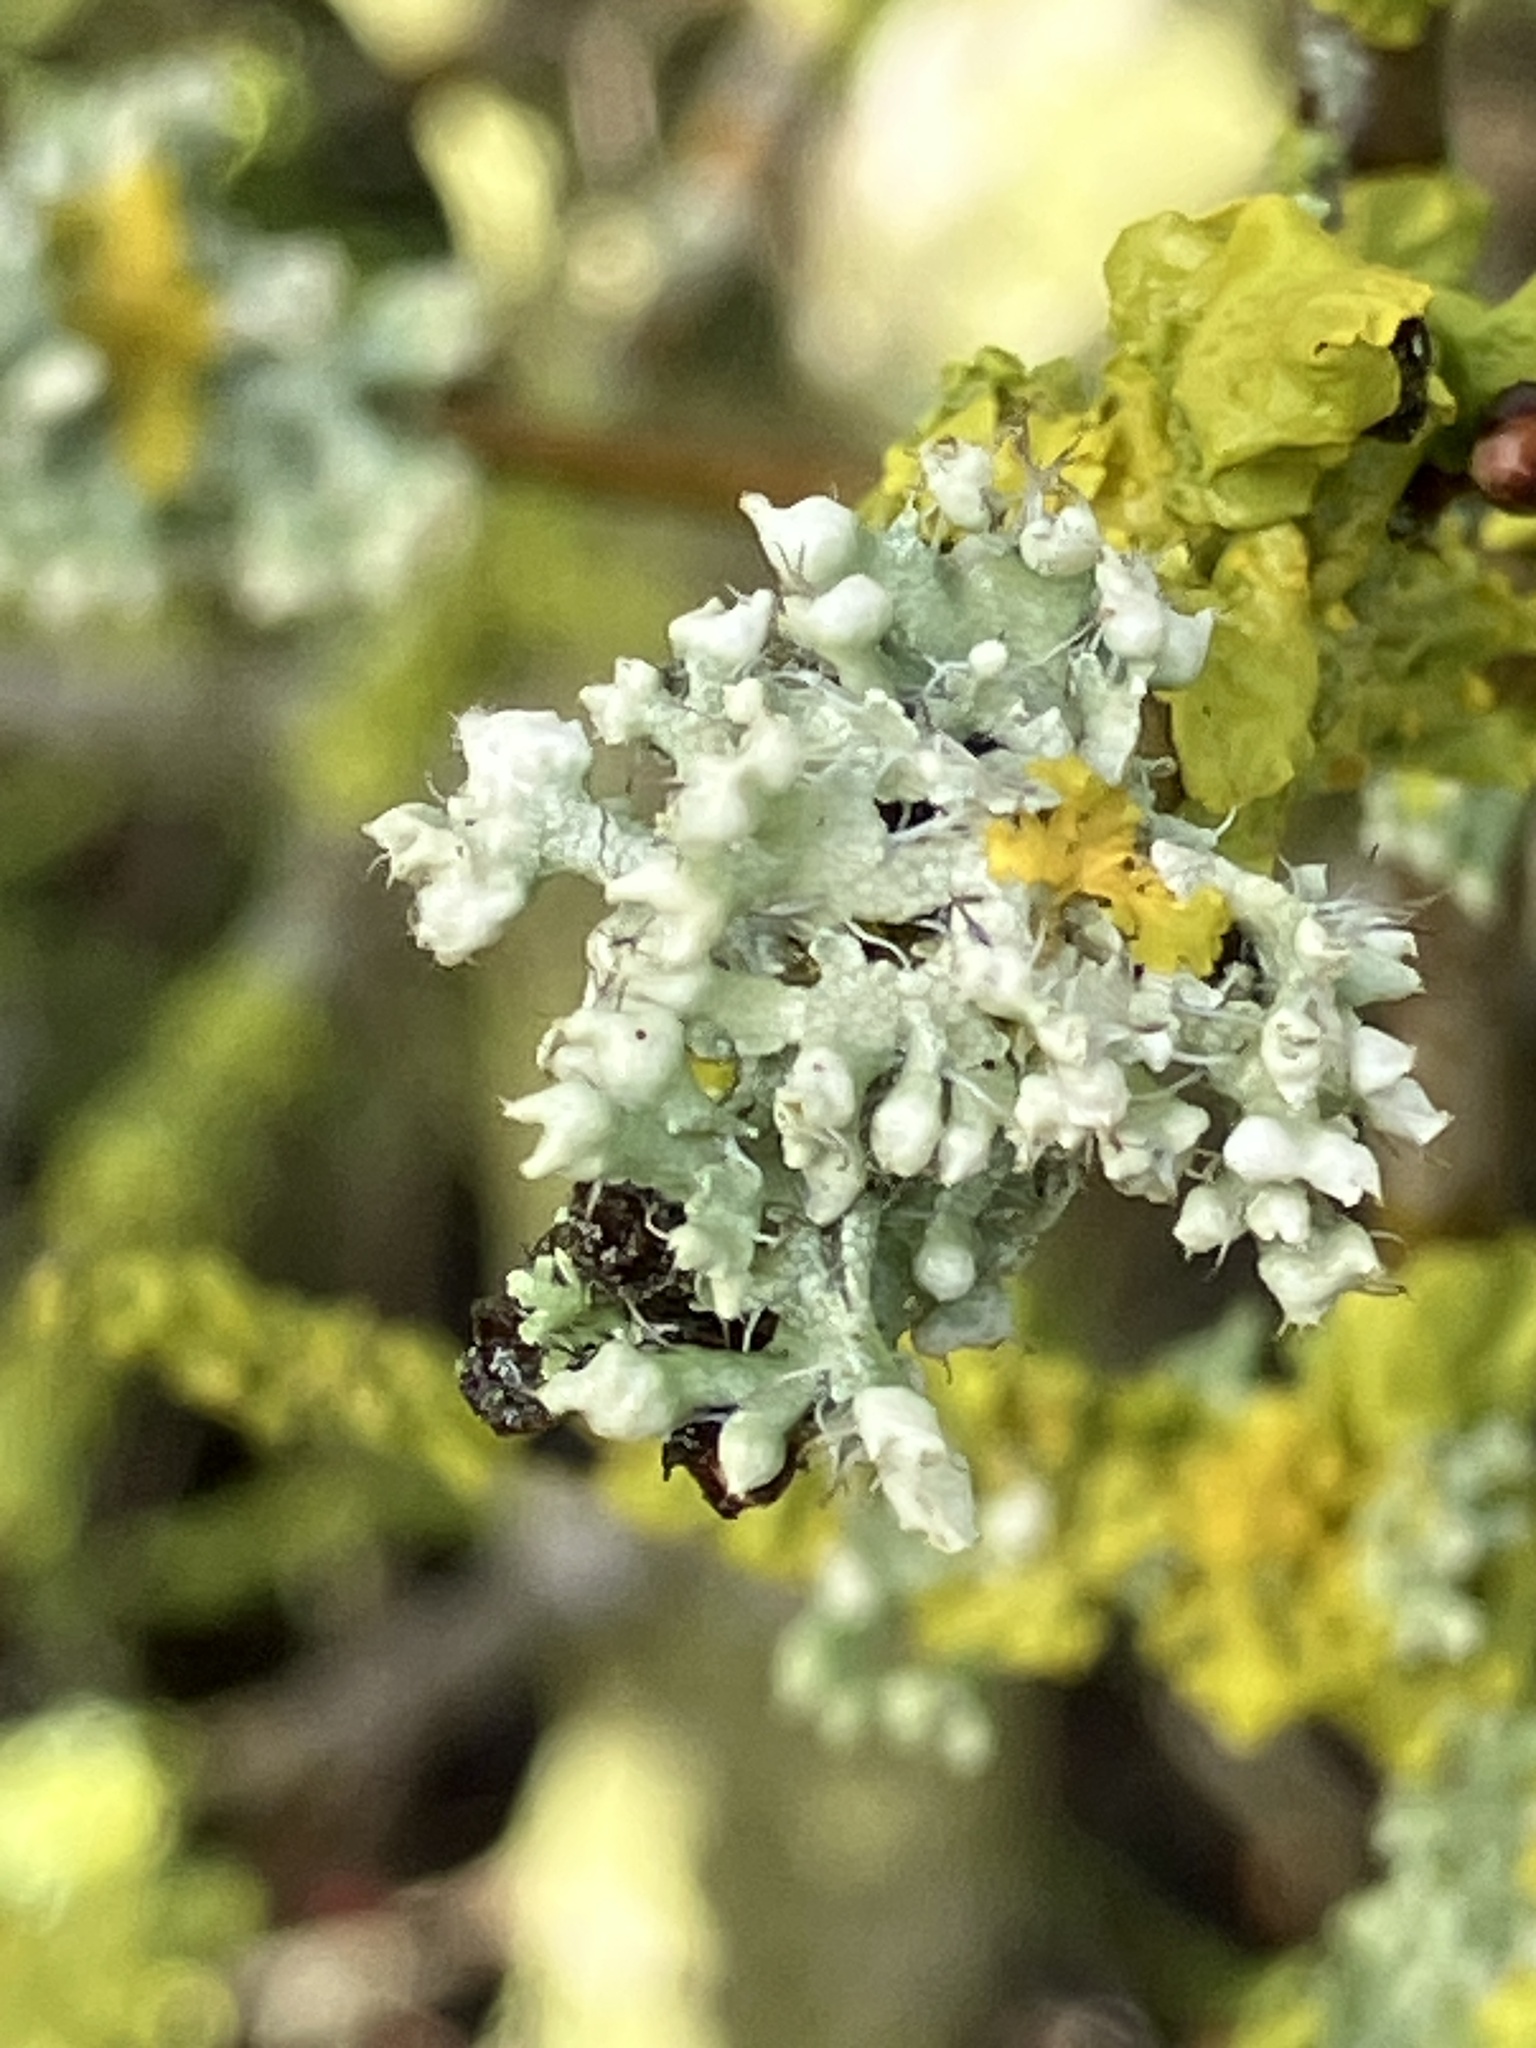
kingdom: Fungi
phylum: Ascomycota
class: Lecanoromycetes
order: Caliciales
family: Physciaceae
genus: Physcia
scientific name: Physcia adscendens
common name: Hooded rosette lichen
